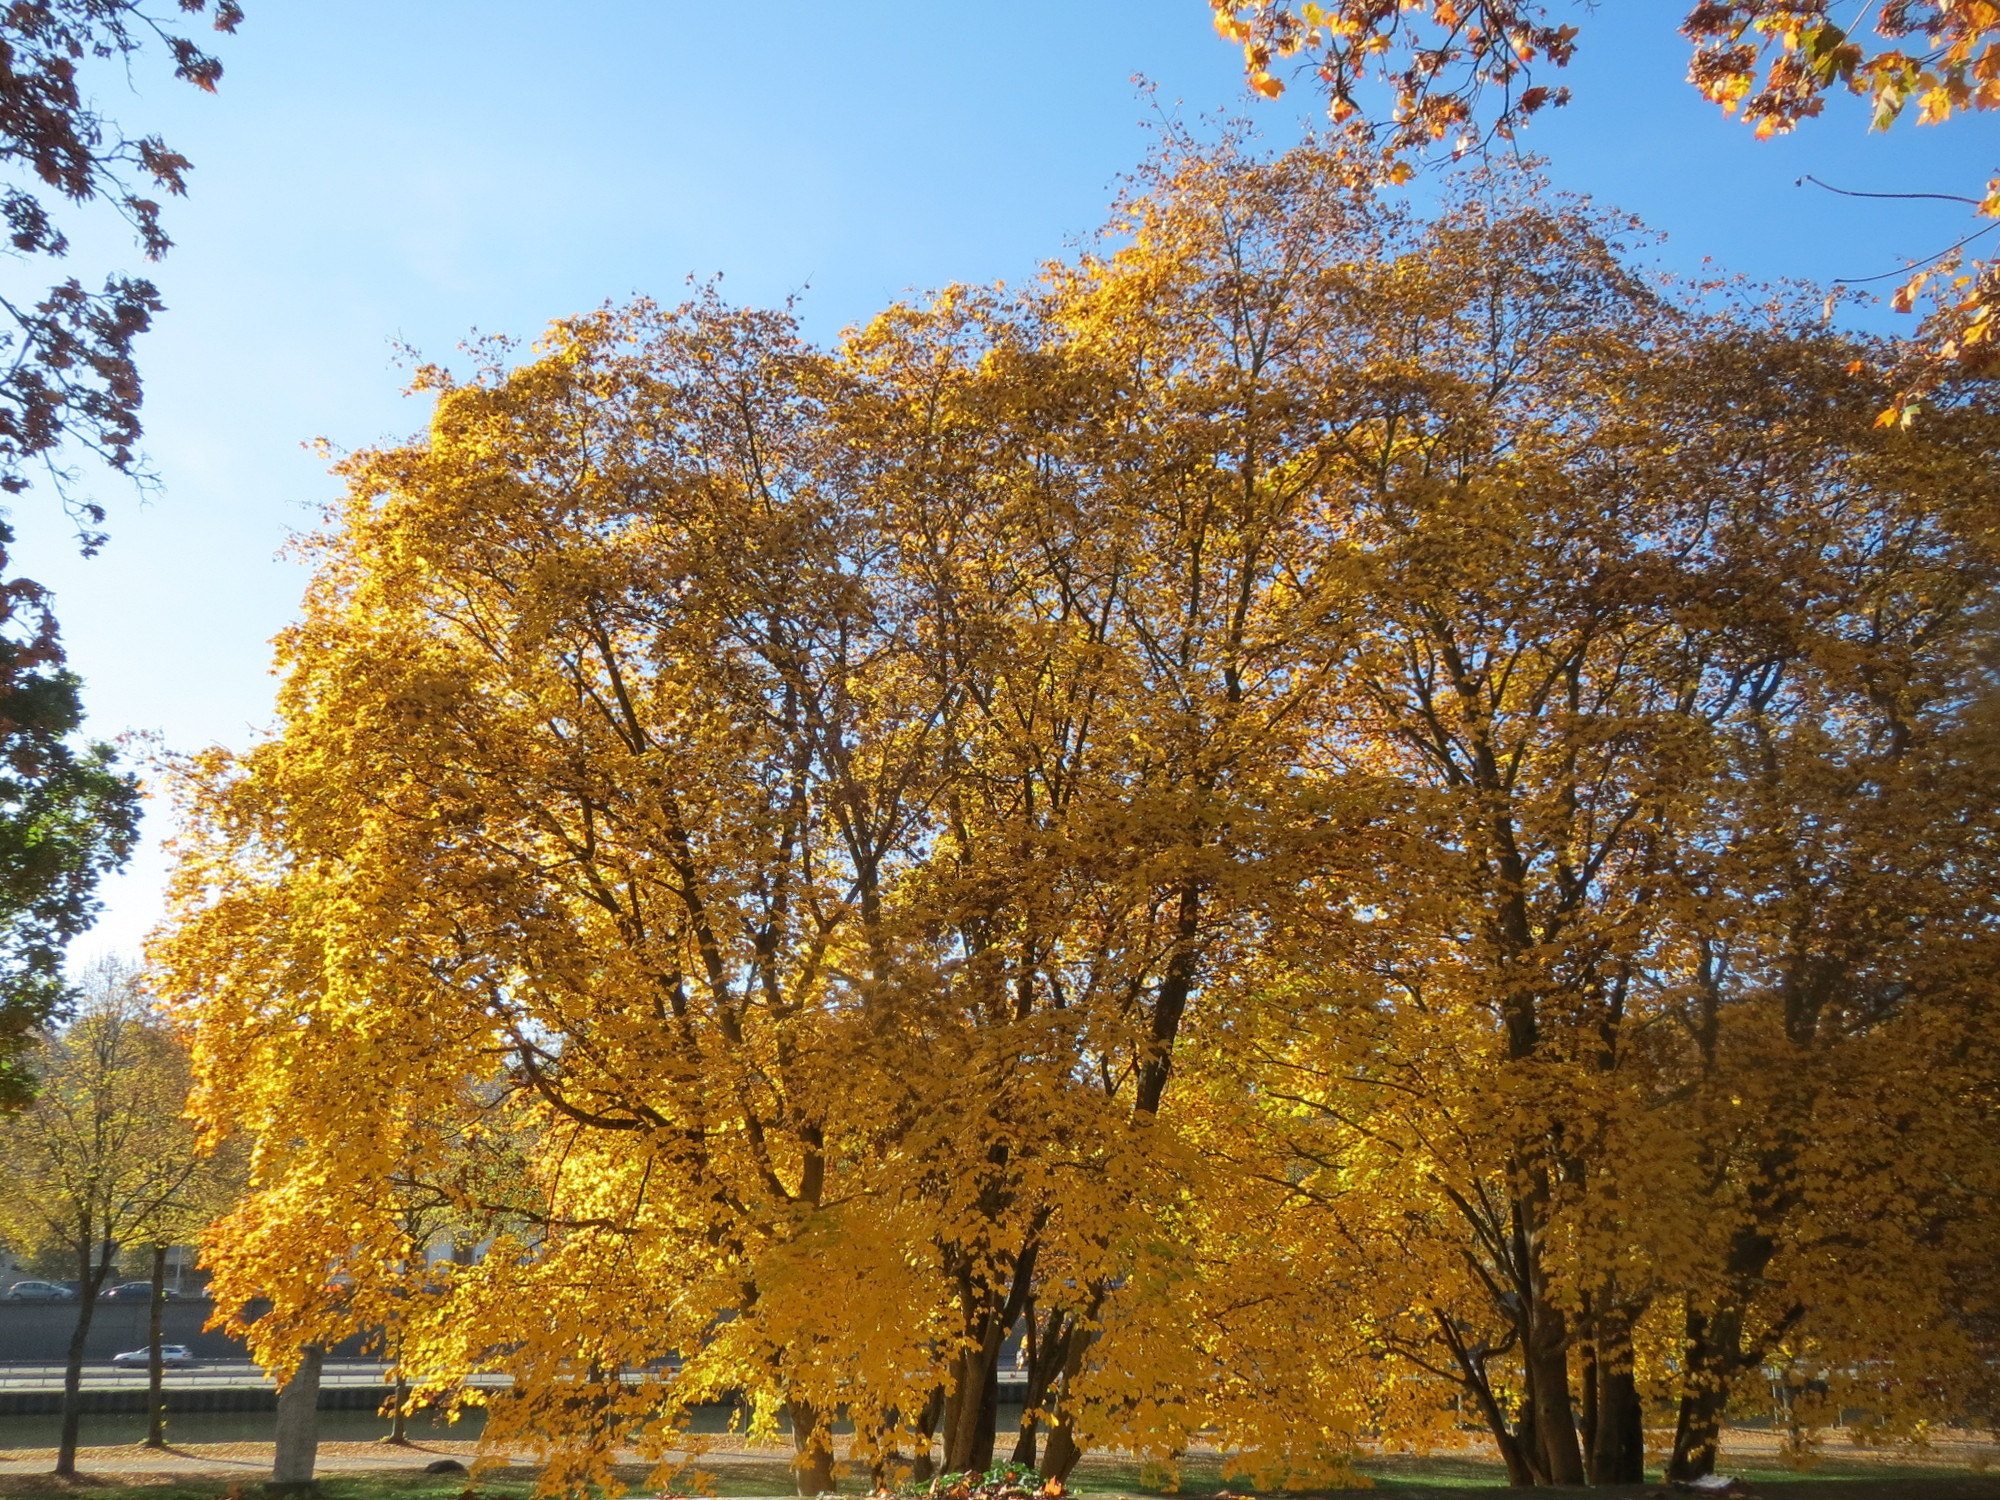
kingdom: Plantae
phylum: Tracheophyta
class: Magnoliopsida
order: Sapindales
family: Sapindaceae
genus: Acer
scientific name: Acer platanoides
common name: Norway maple
